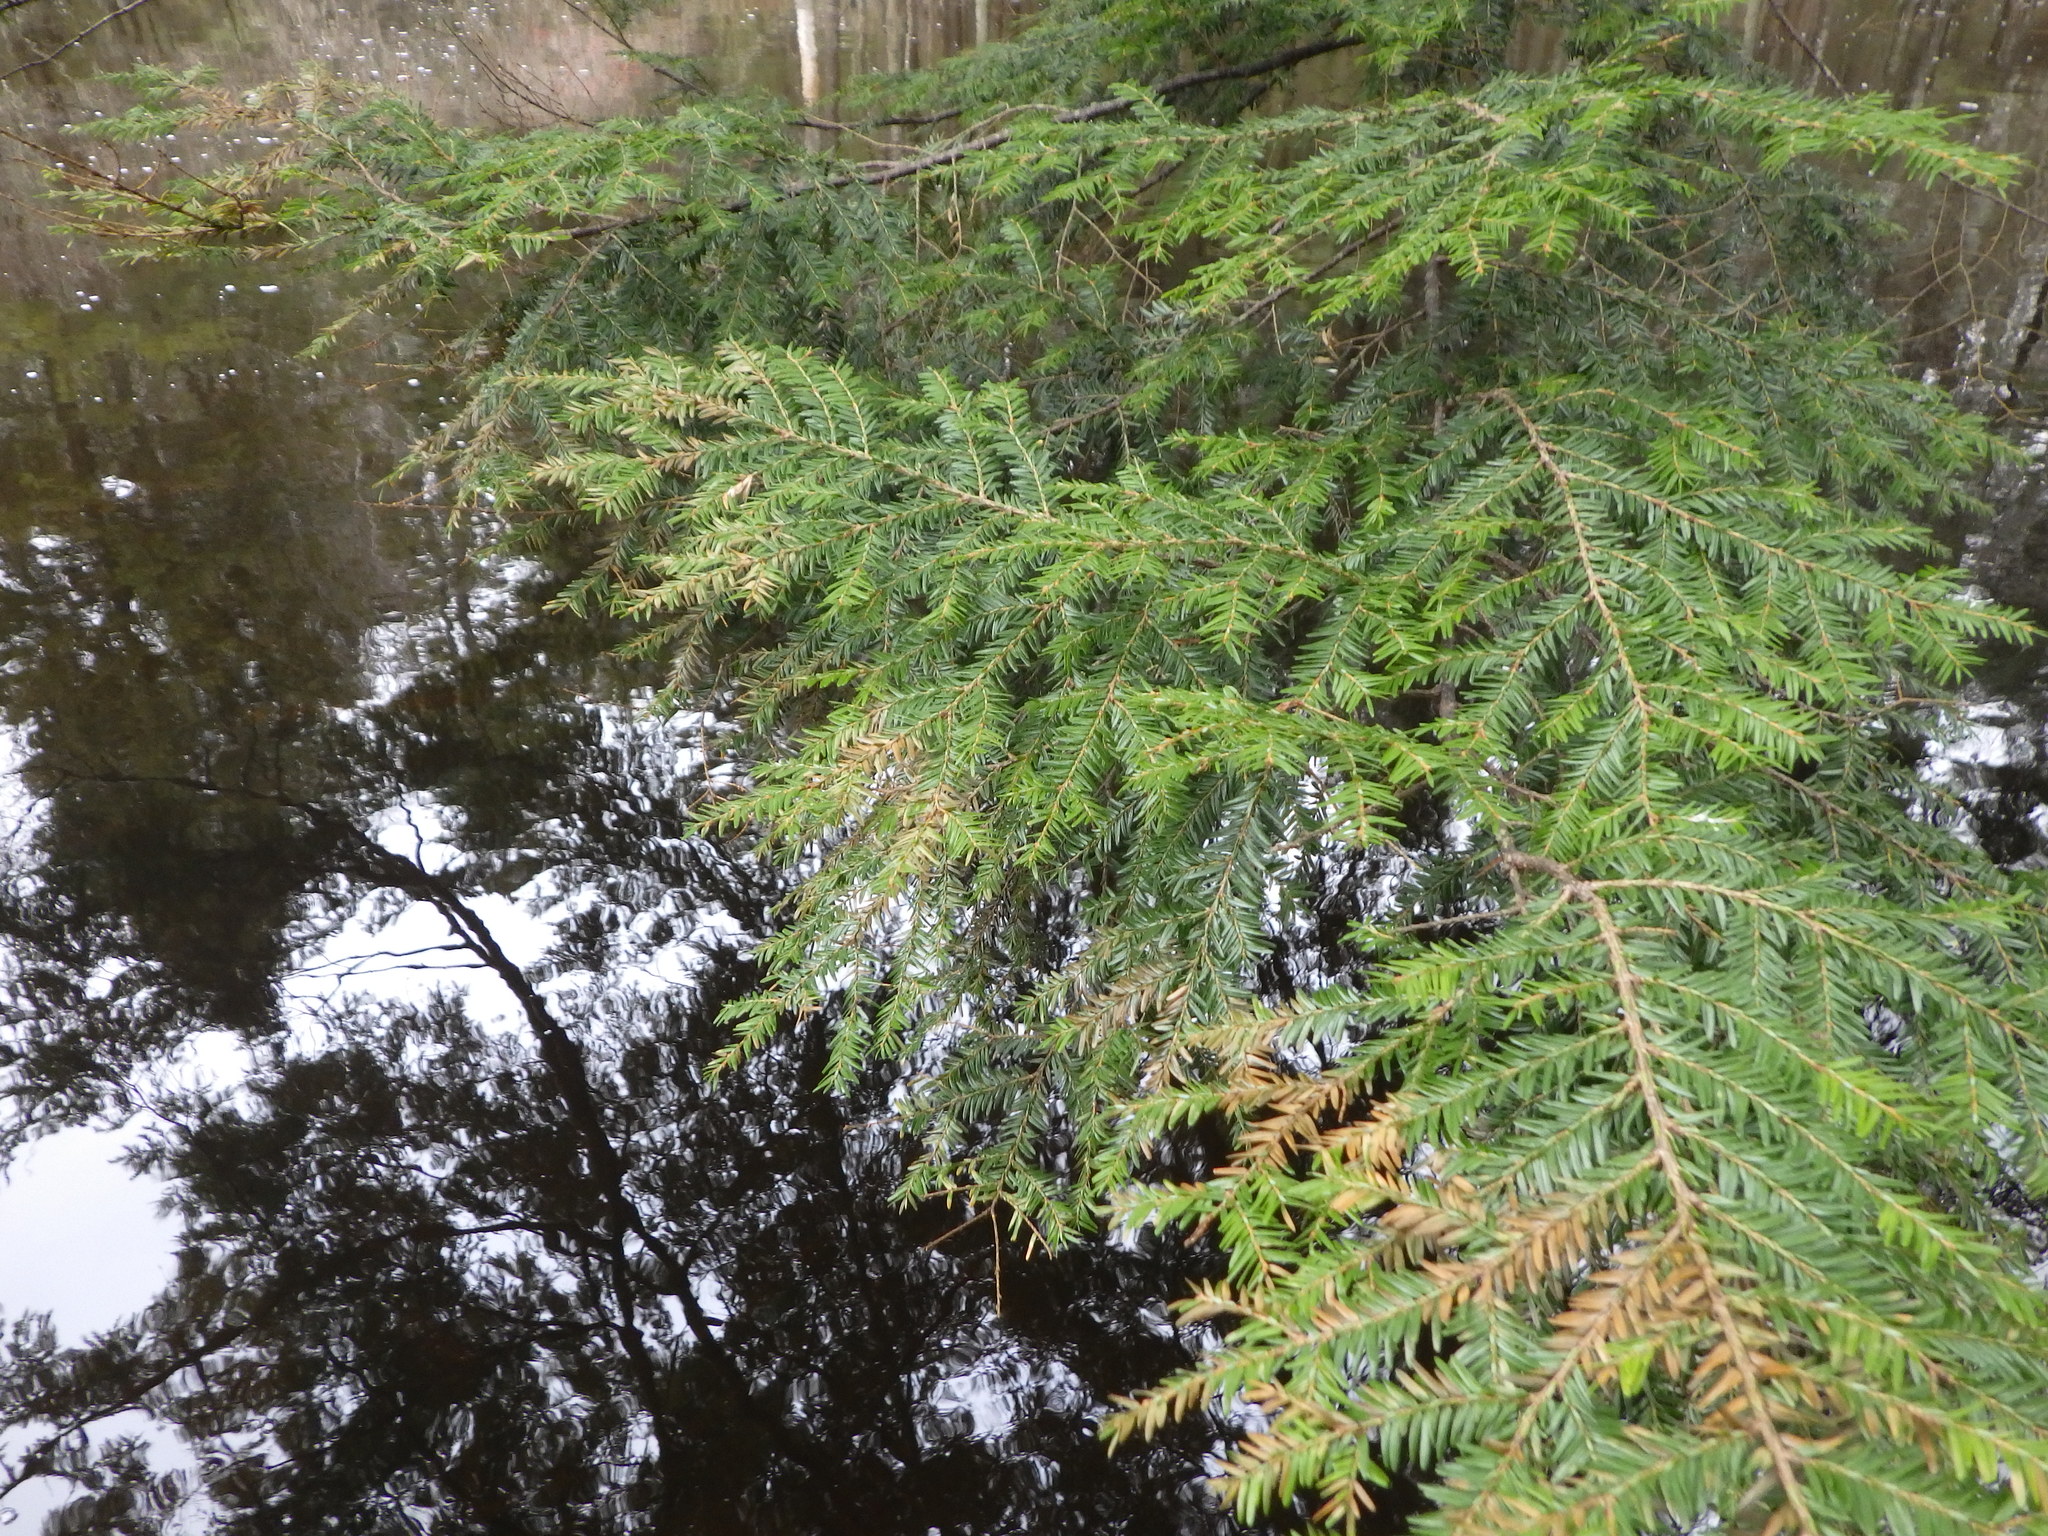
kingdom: Plantae
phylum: Tracheophyta
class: Pinopsida
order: Pinales
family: Pinaceae
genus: Tsuga
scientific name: Tsuga canadensis
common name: Eastern hemlock
